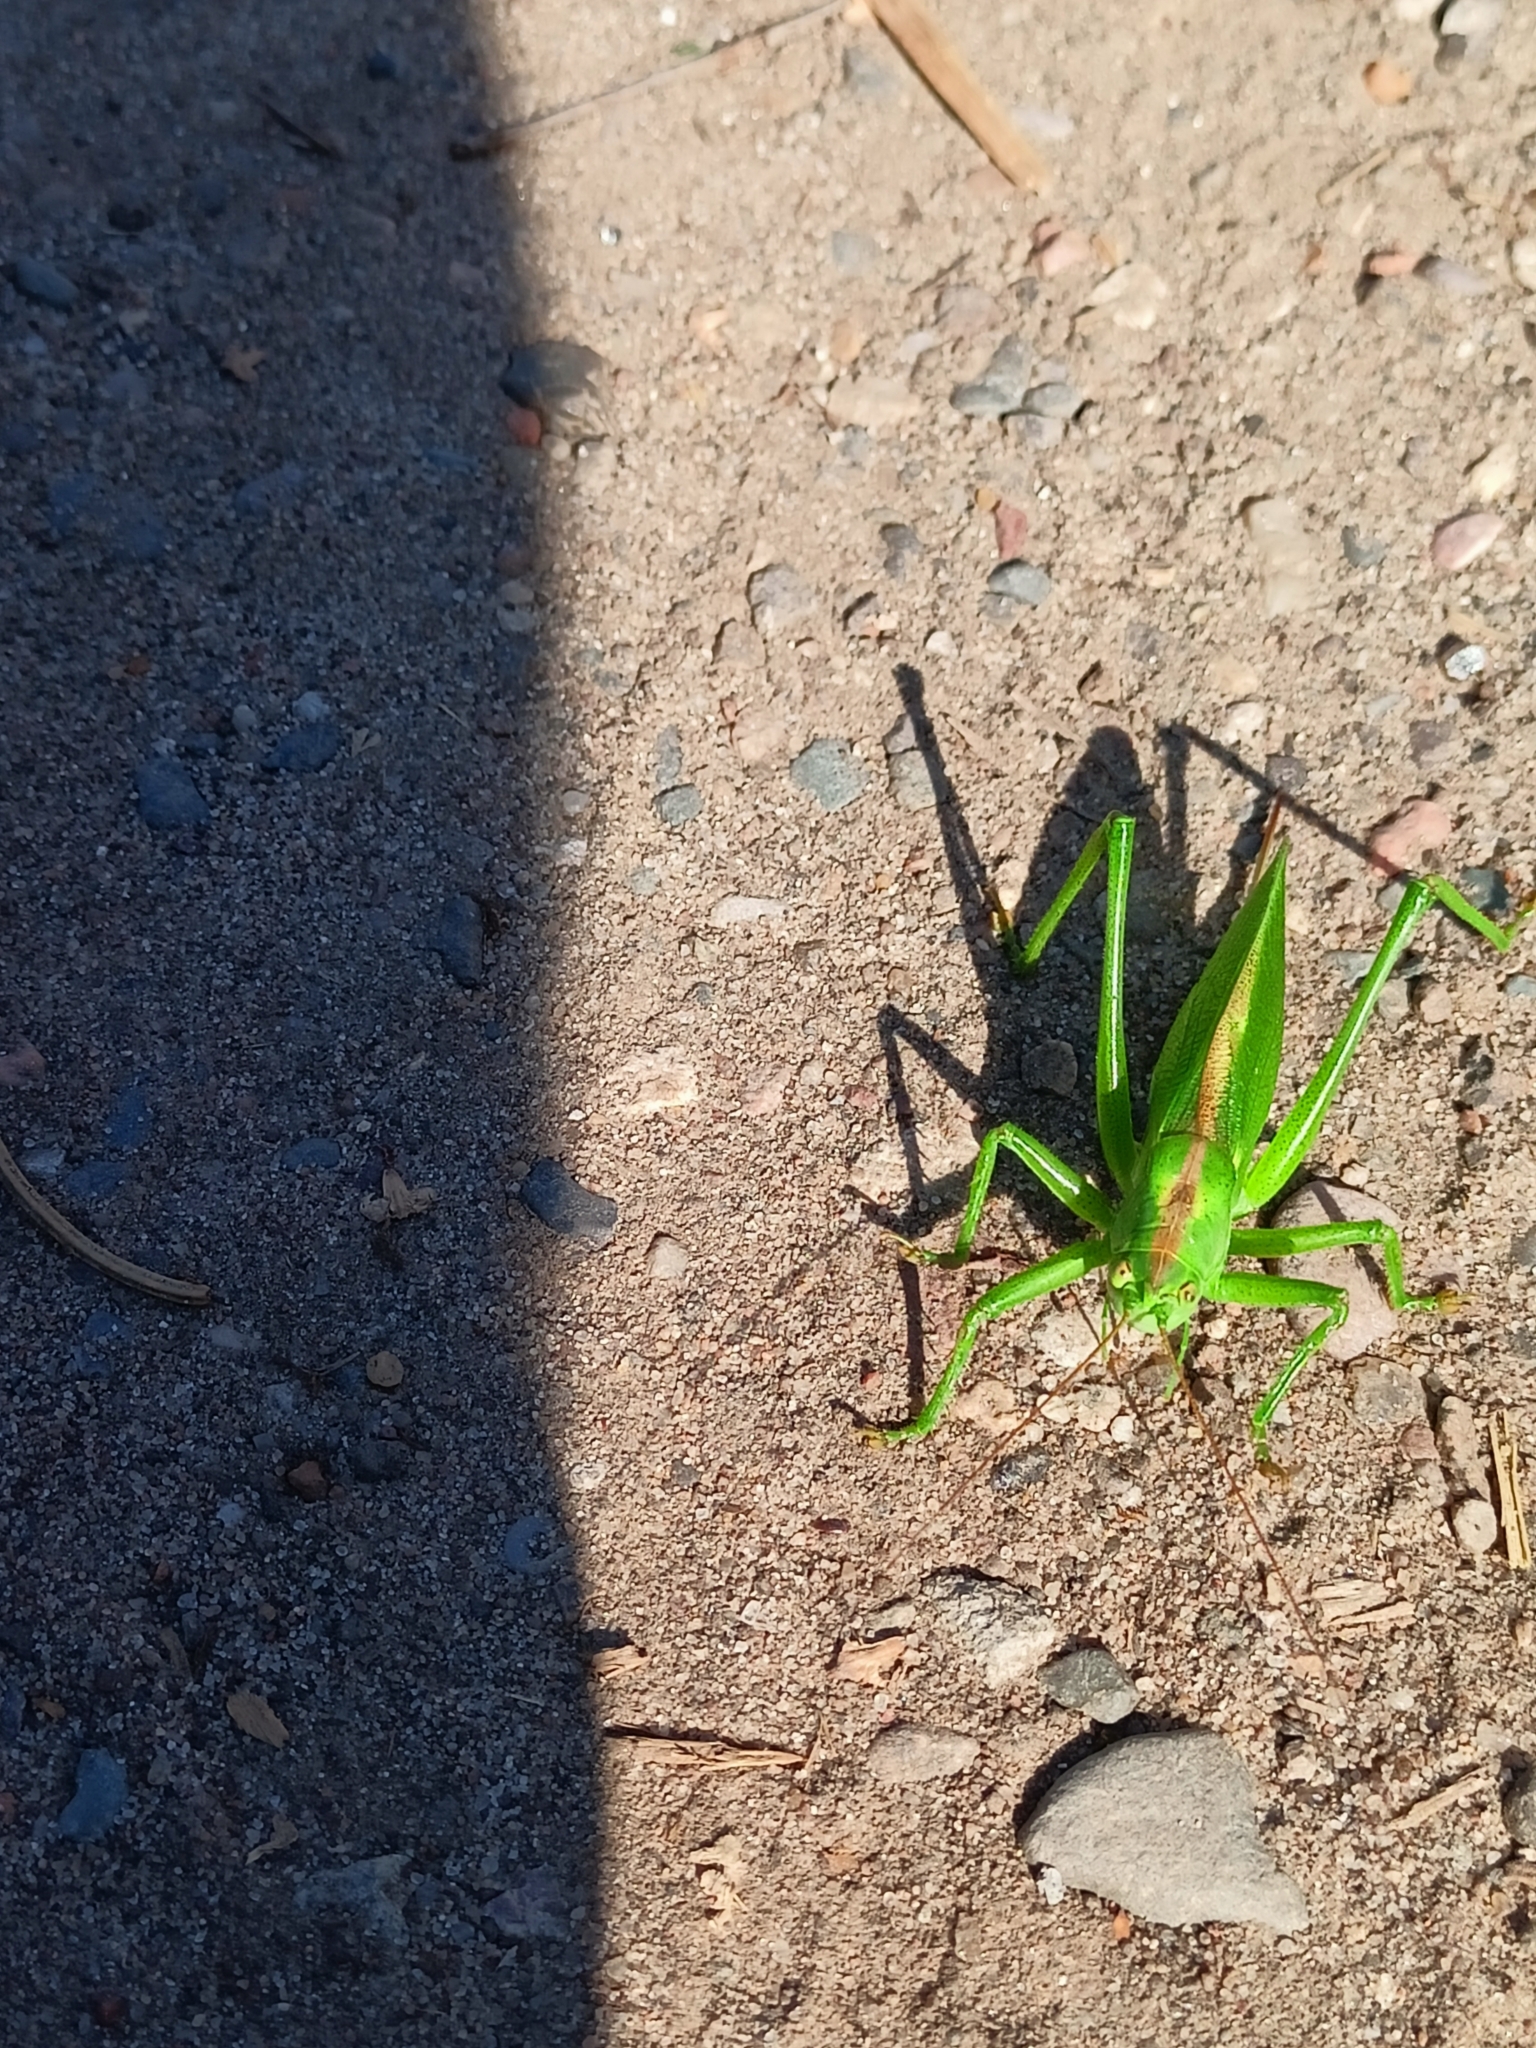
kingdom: Animalia
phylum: Arthropoda
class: Insecta
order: Orthoptera
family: Tettigoniidae
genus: Tettigonia
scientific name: Tettigonia cantans
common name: Upland green bush-cricket
